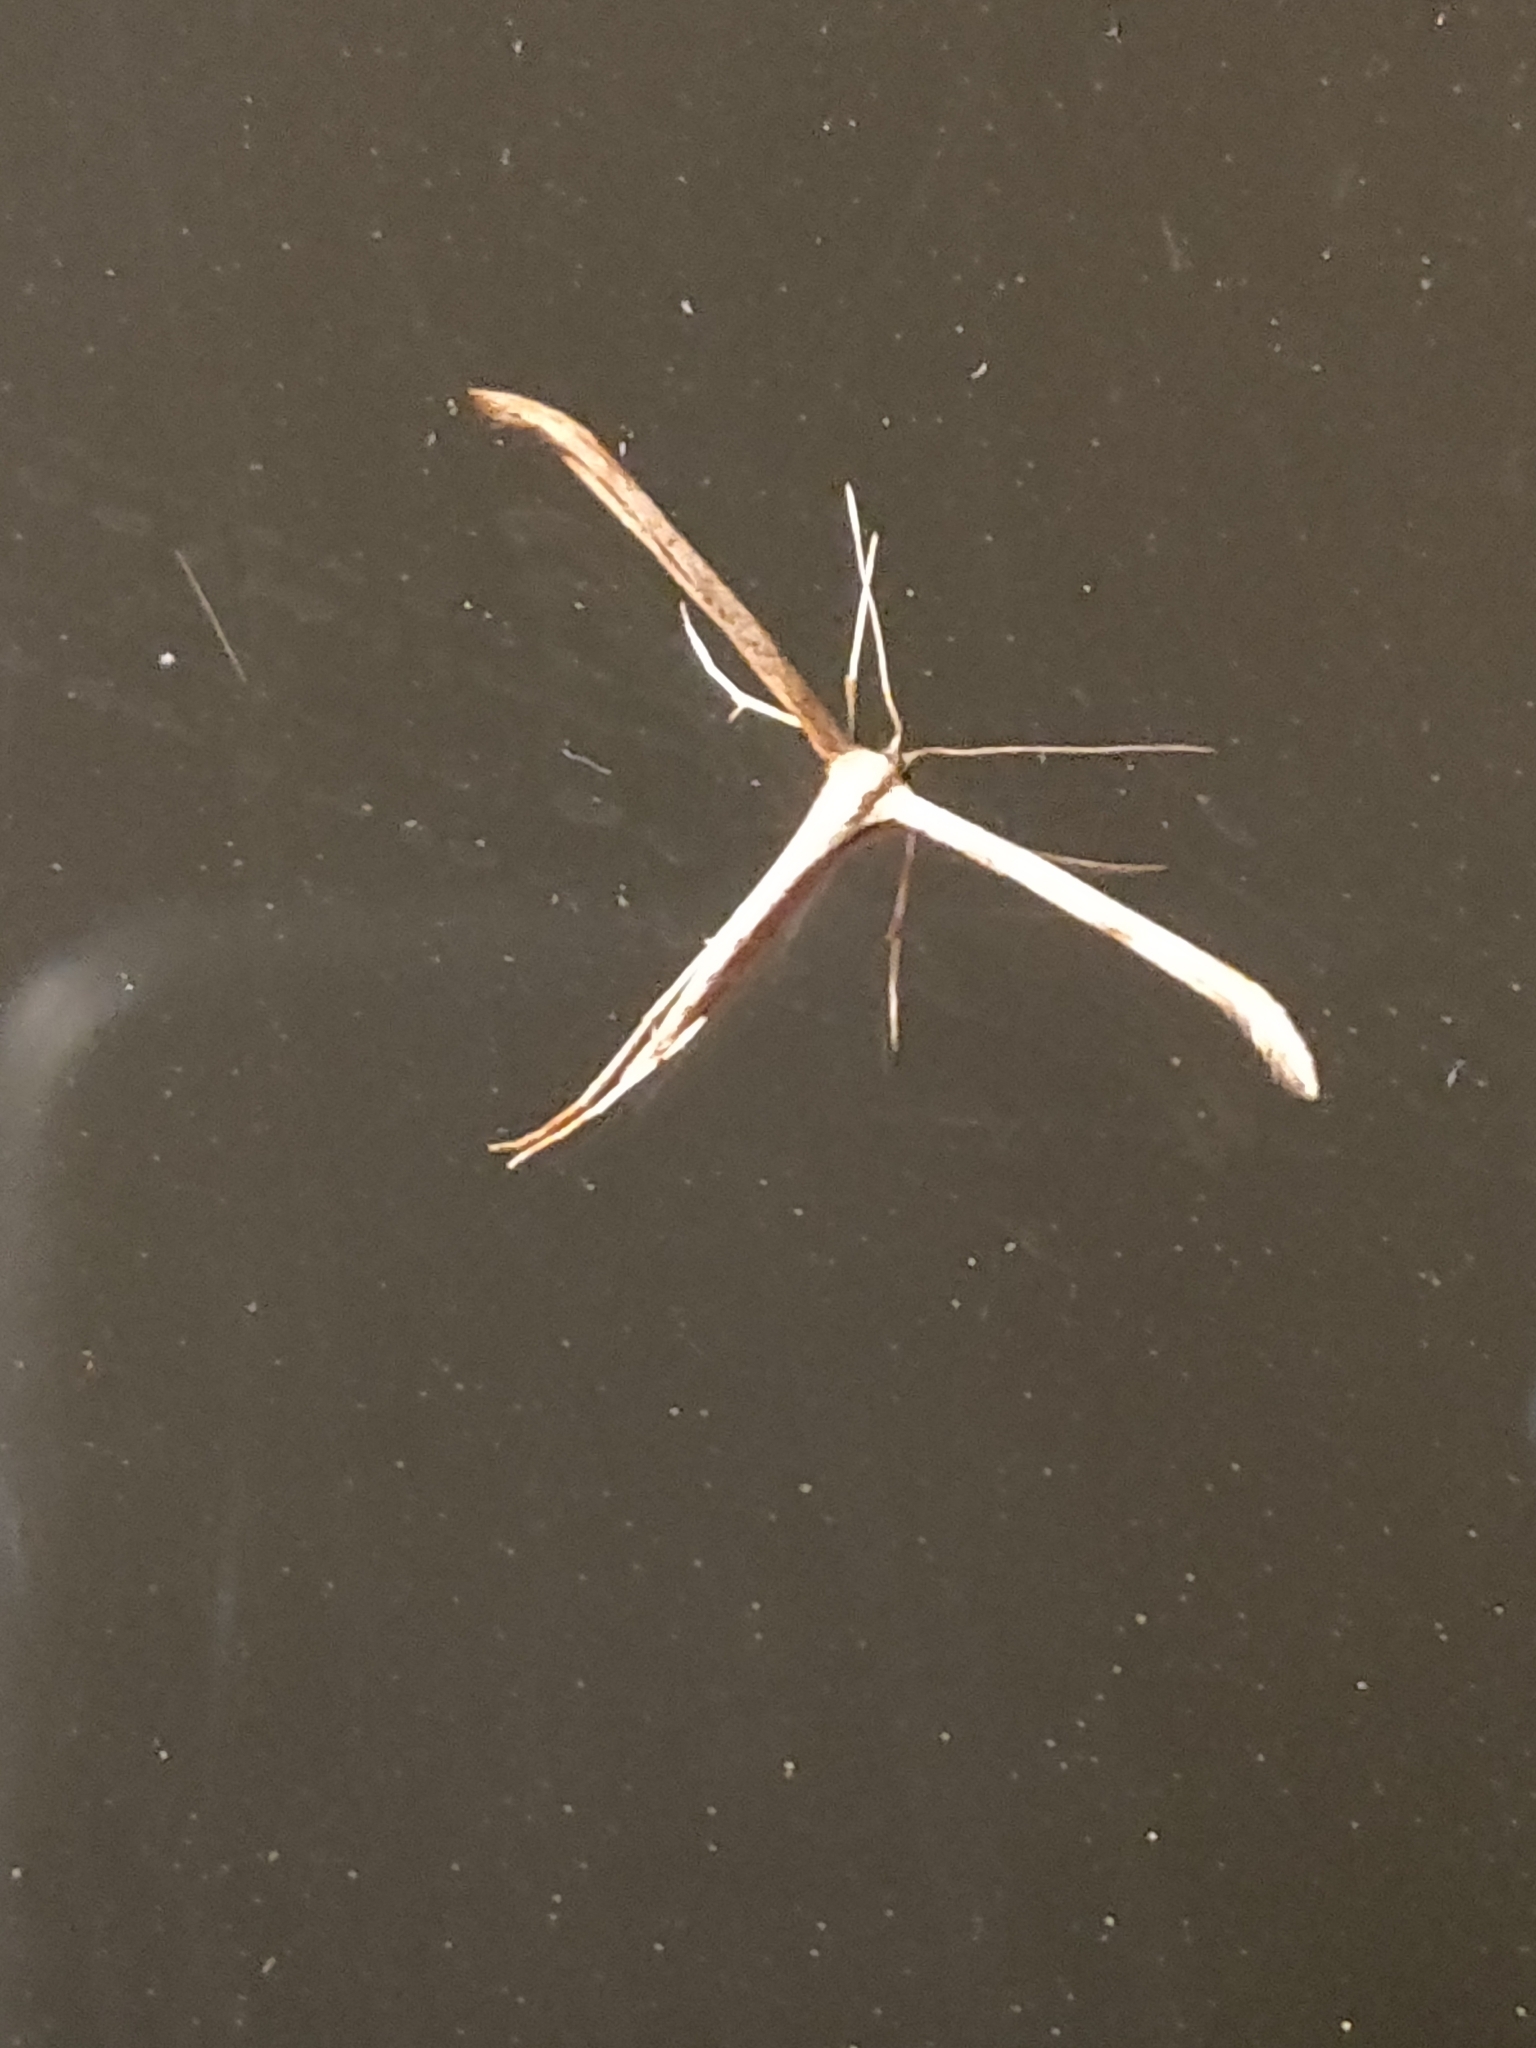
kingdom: Animalia
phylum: Arthropoda
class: Insecta
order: Lepidoptera
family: Pterophoridae
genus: Emmelina
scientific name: Emmelina monodactyla
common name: Common plume
